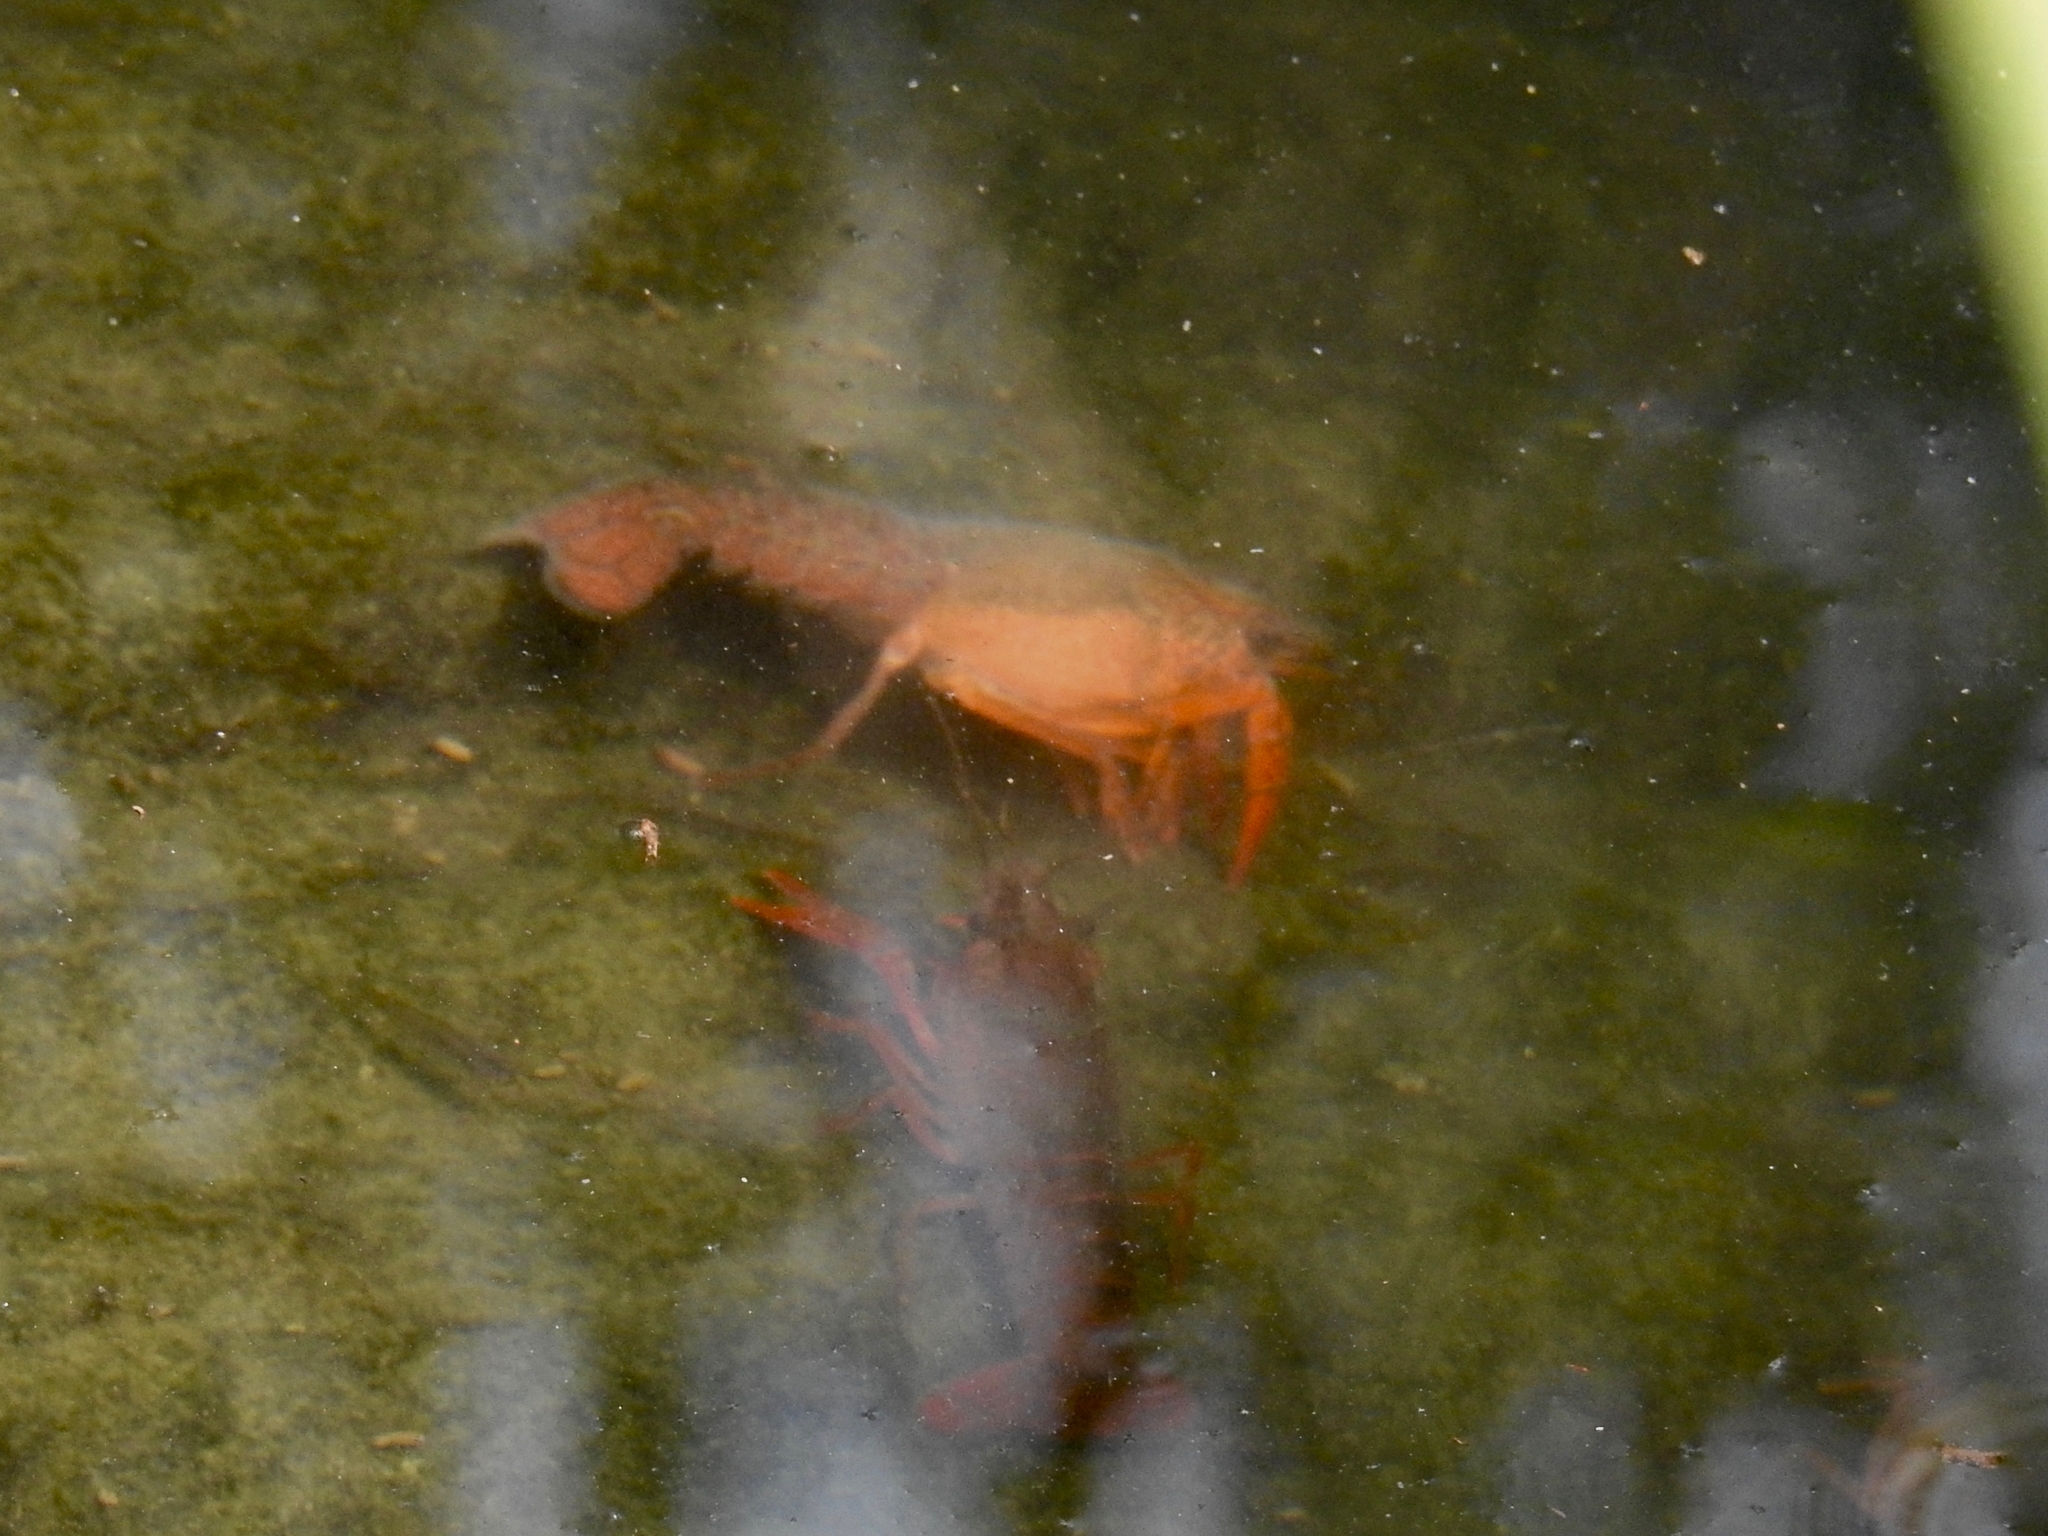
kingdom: Animalia
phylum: Arthropoda
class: Malacostraca
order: Decapoda
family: Cambaridae
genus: Procambarus
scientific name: Procambarus clarkii
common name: Red swamp crayfish
